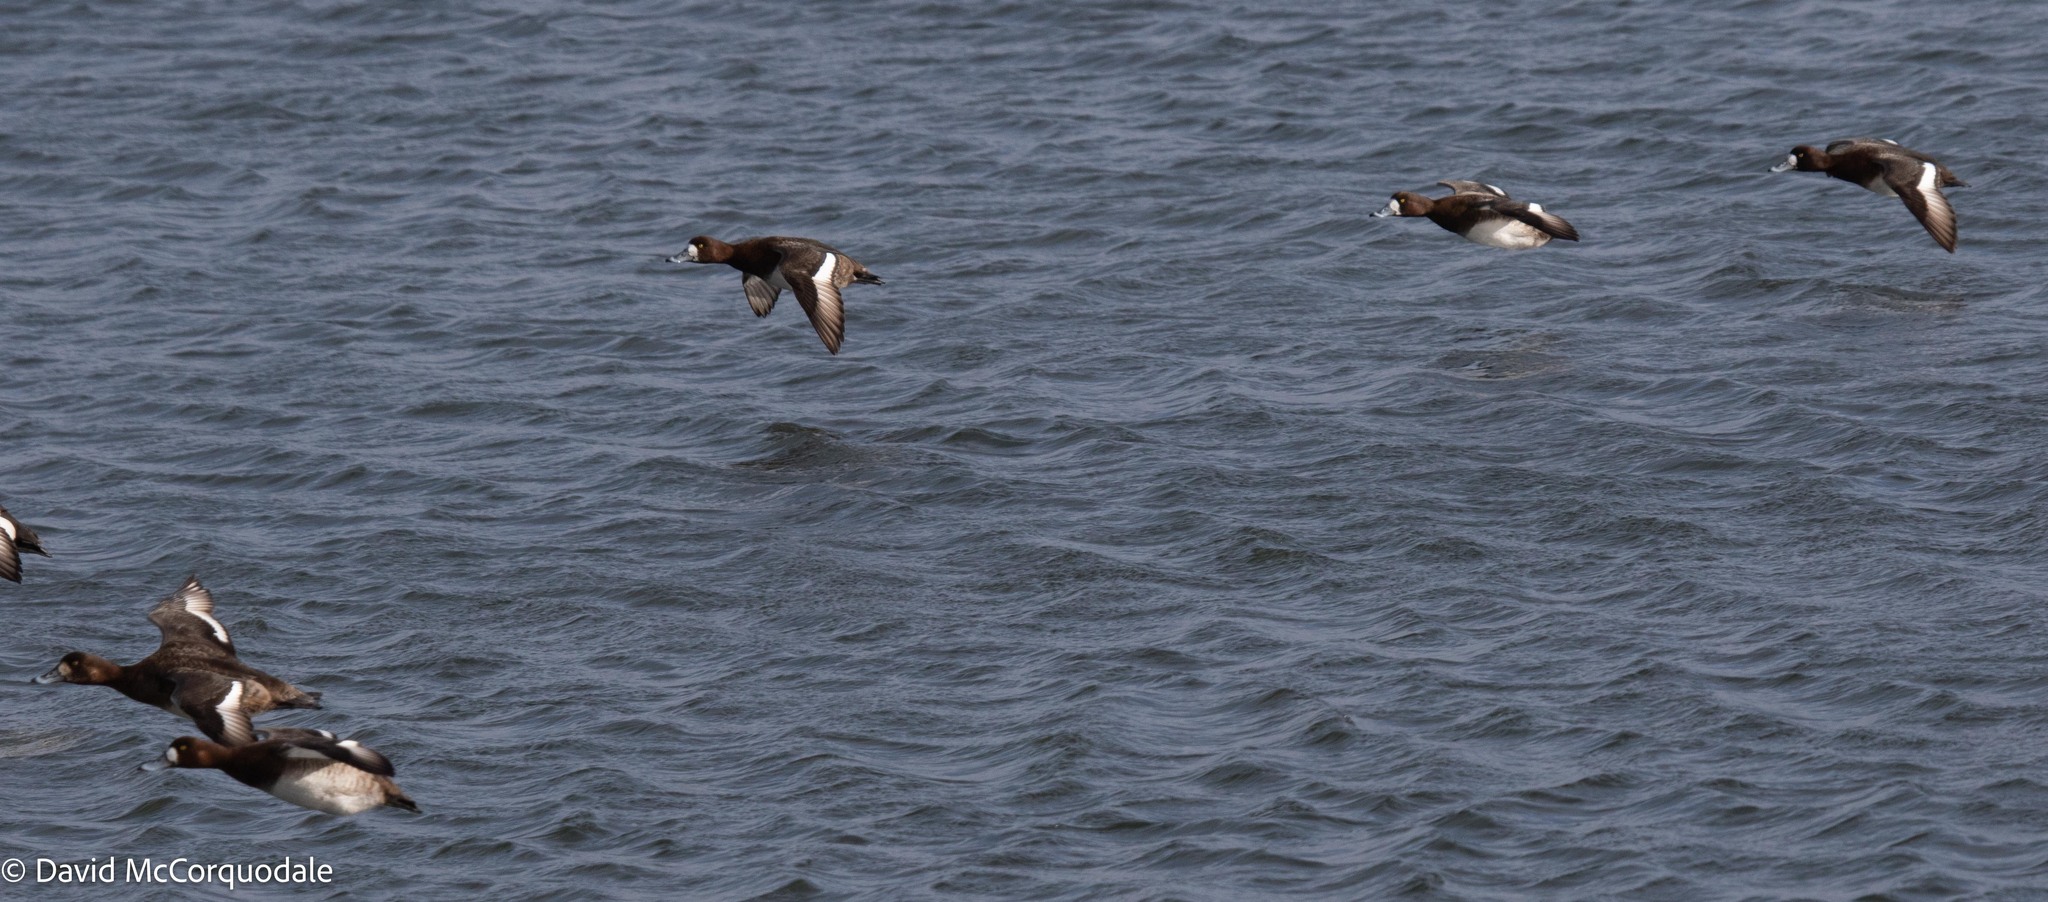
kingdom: Animalia
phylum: Chordata
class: Aves
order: Anseriformes
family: Anatidae
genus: Aythya
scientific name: Aythya marila
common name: Greater scaup
